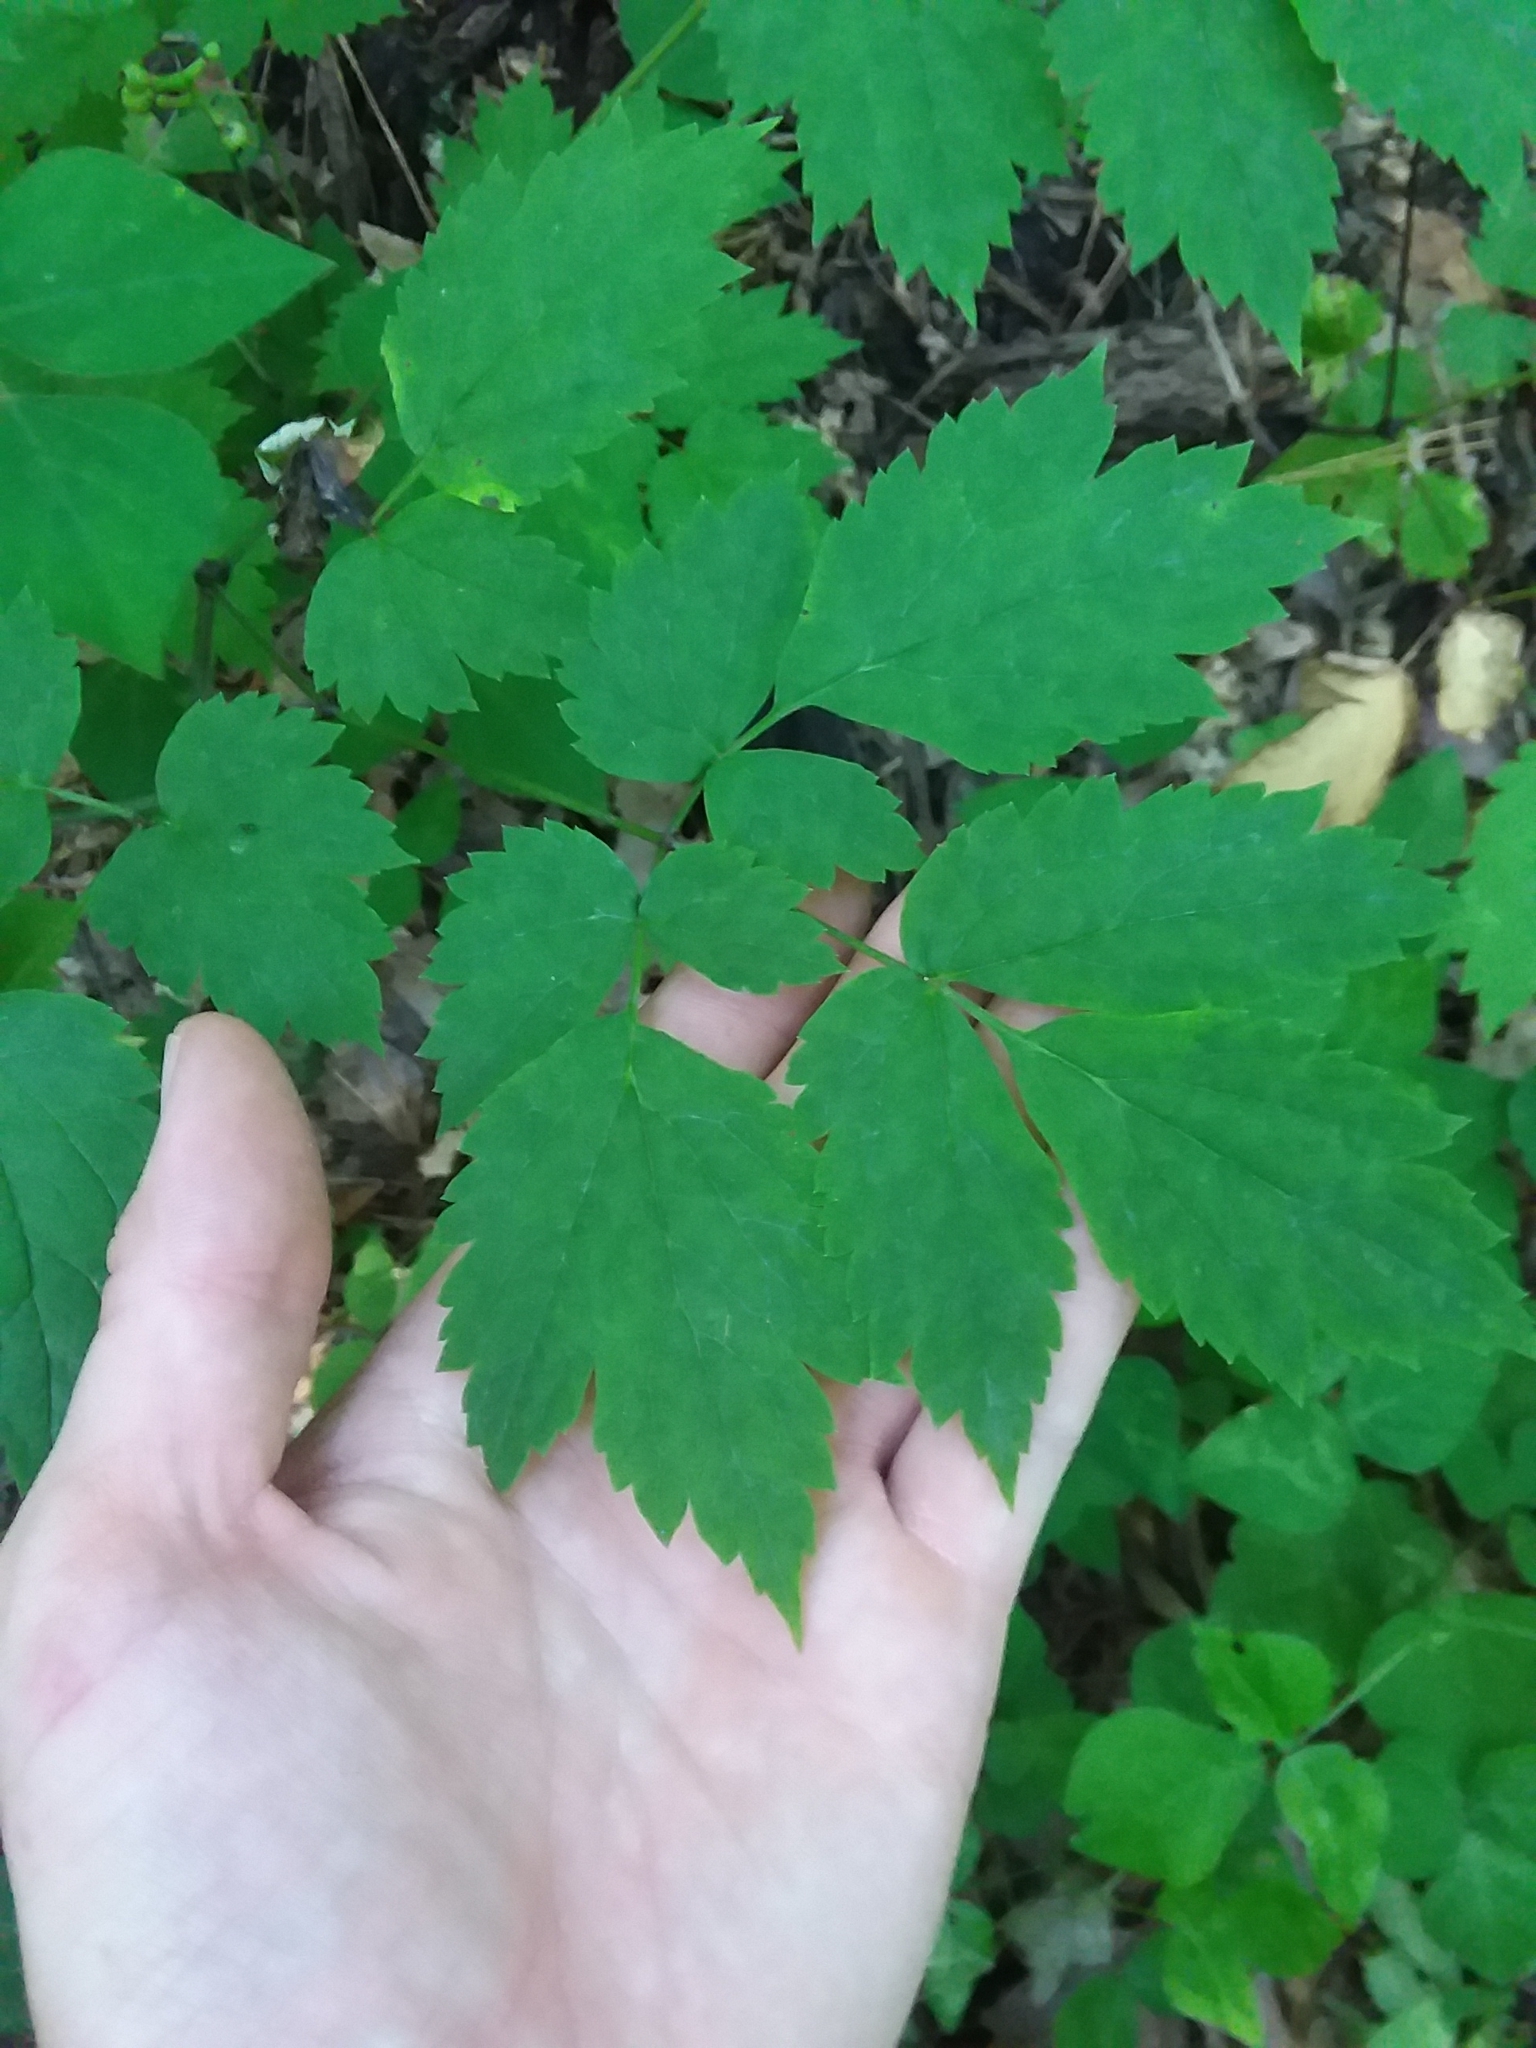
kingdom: Plantae
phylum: Tracheophyta
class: Magnoliopsida
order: Ranunculales
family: Ranunculaceae
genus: Actaea
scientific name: Actaea pachypoda
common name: Doll's-eyes
